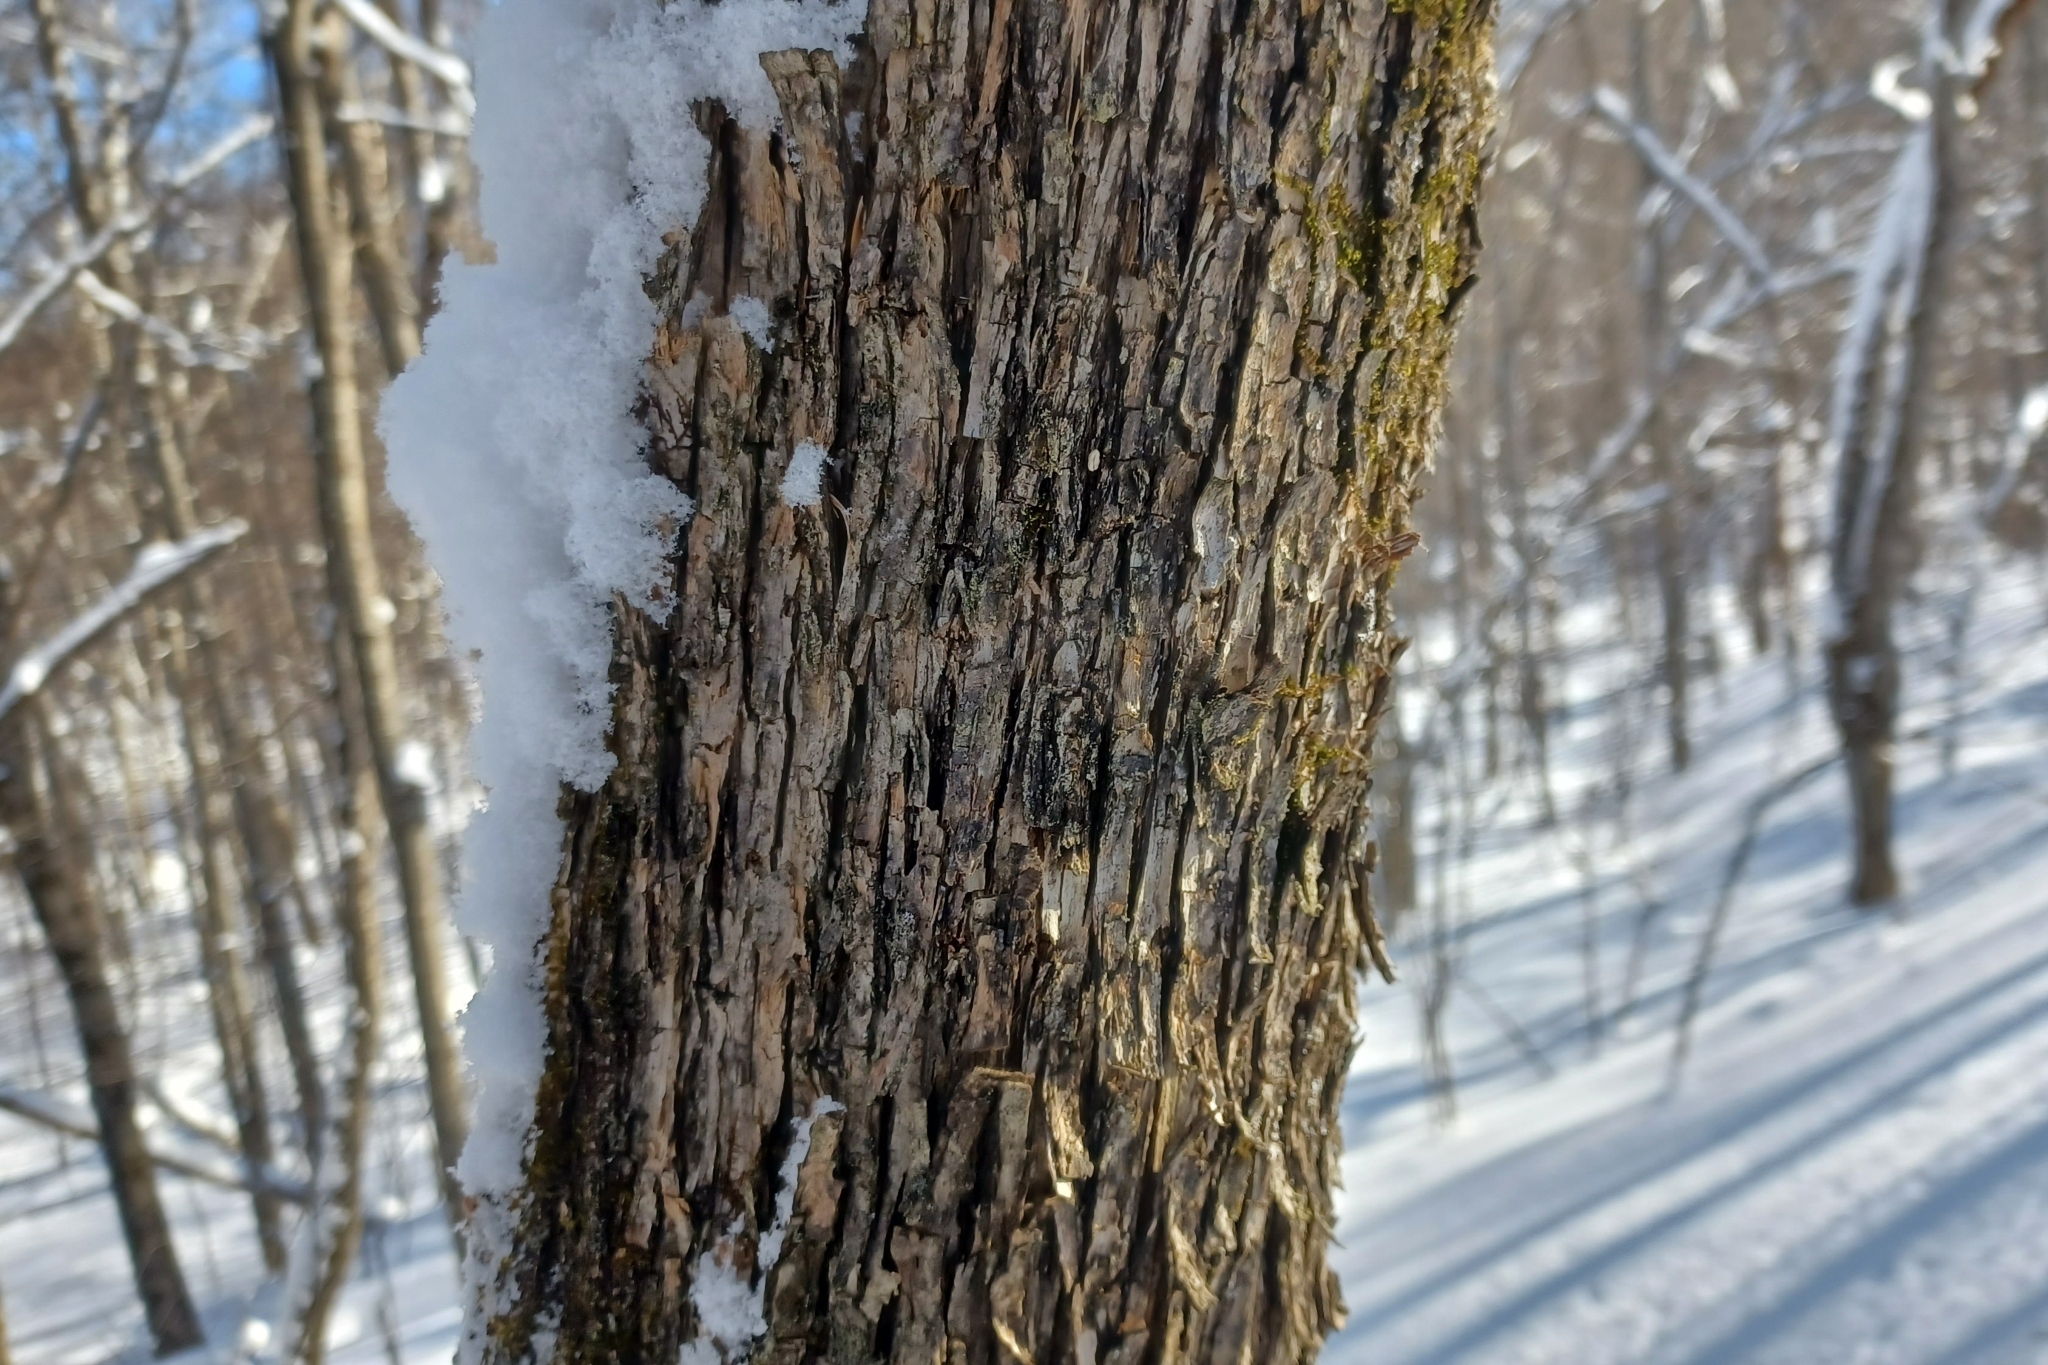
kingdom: Plantae
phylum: Tracheophyta
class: Magnoliopsida
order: Fagales
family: Betulaceae
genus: Ostrya
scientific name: Ostrya virginiana
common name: Ironwood
